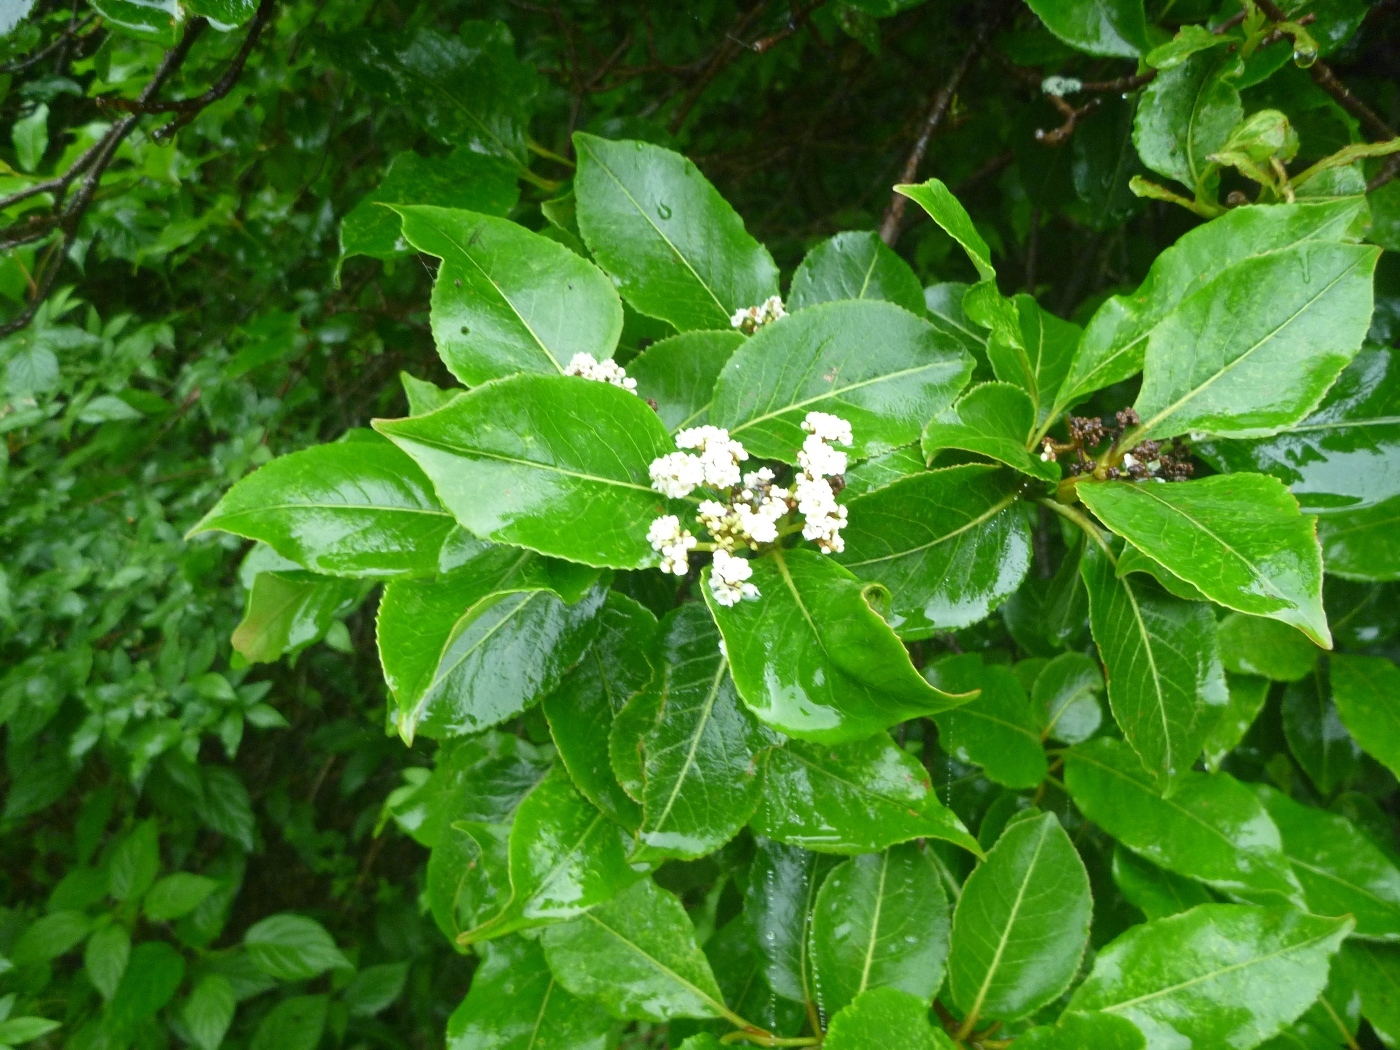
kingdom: Plantae
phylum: Tracheophyta
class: Magnoliopsida
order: Dipsacales
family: Viburnaceae
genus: Viburnum
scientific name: Viburnum cassinoides
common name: Swamp haw
